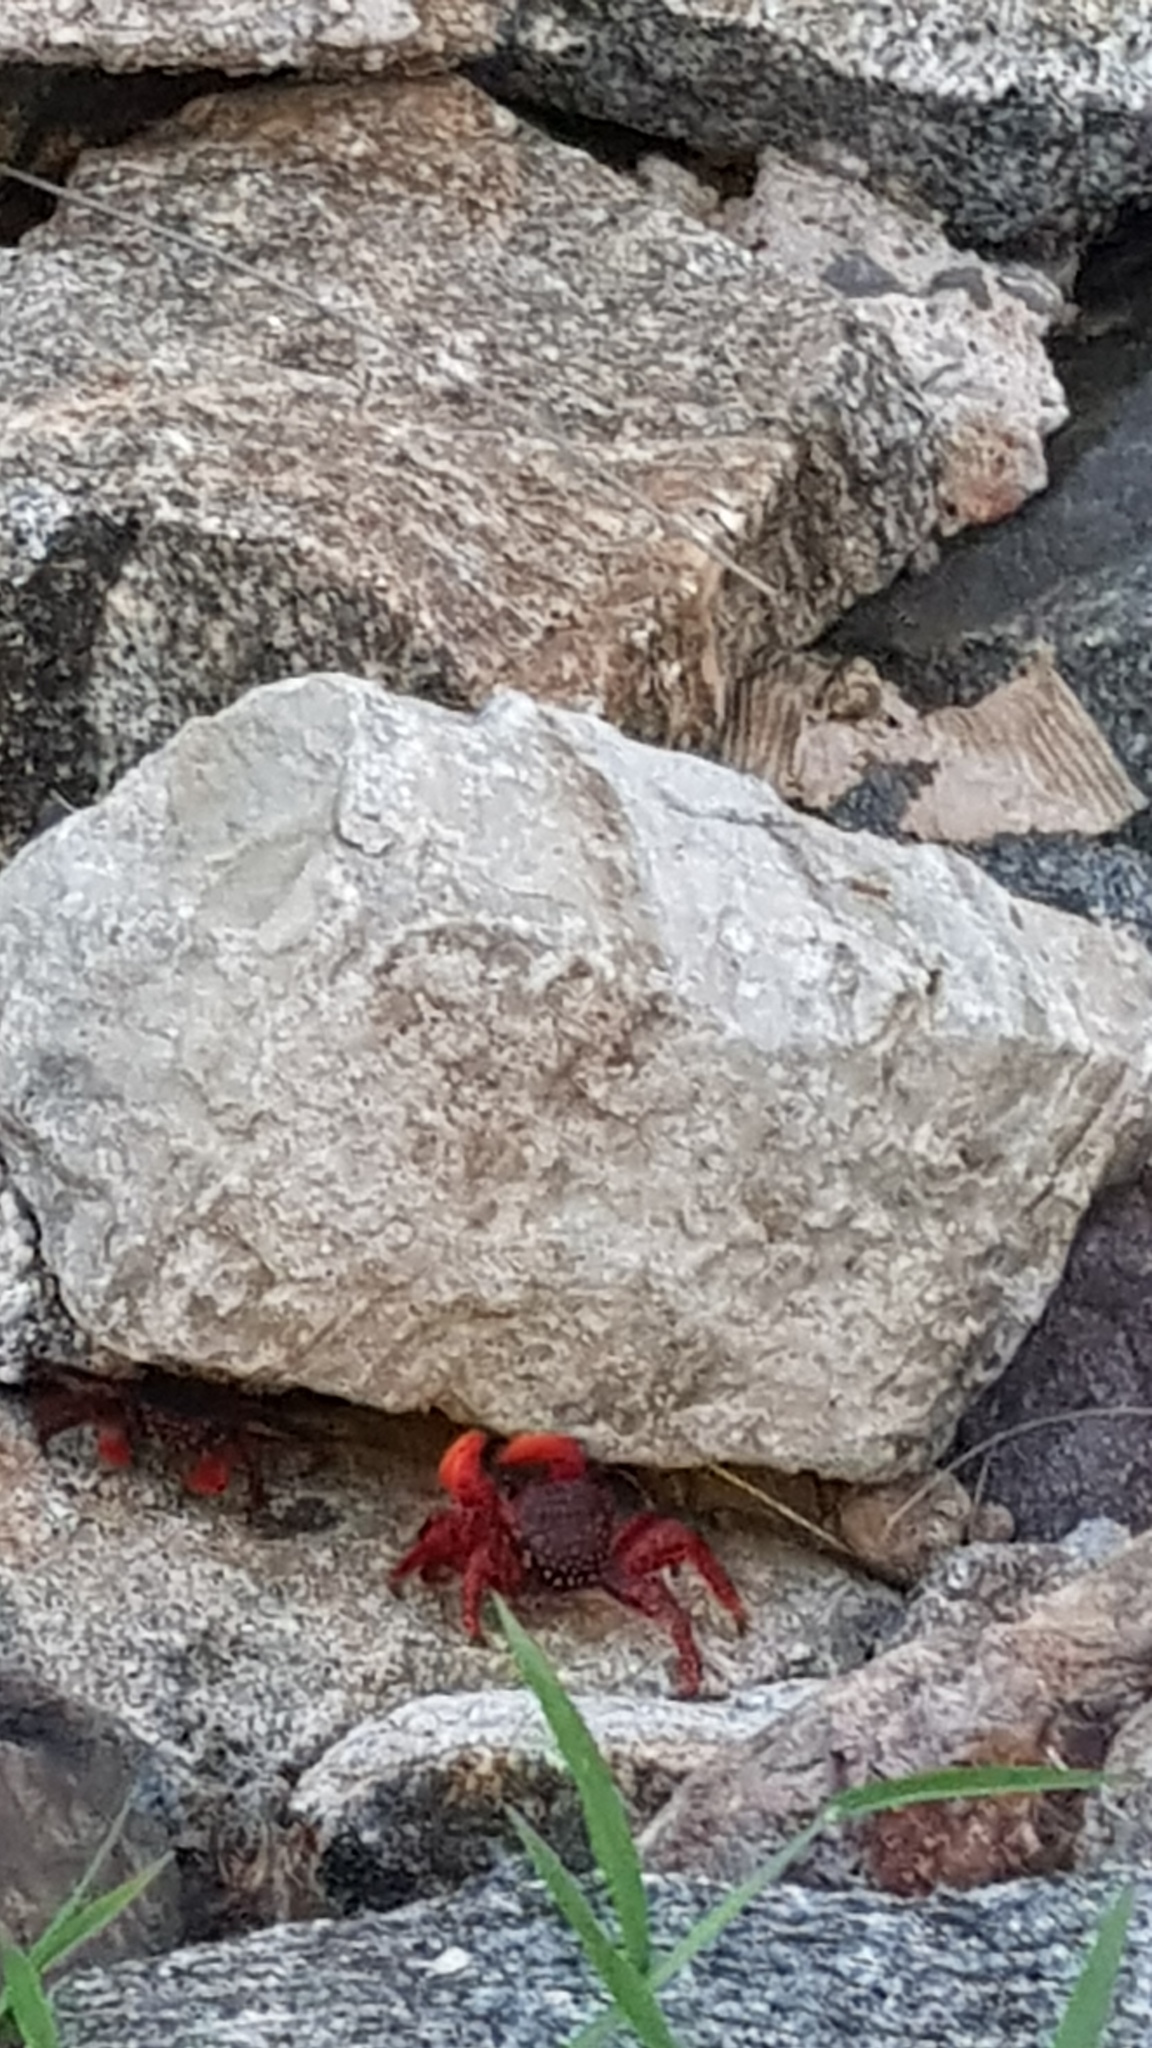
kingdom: Animalia
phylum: Arthropoda
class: Malacostraca
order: Decapoda
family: Grapsidae
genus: Goniopsis
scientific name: Goniopsis pulchra
